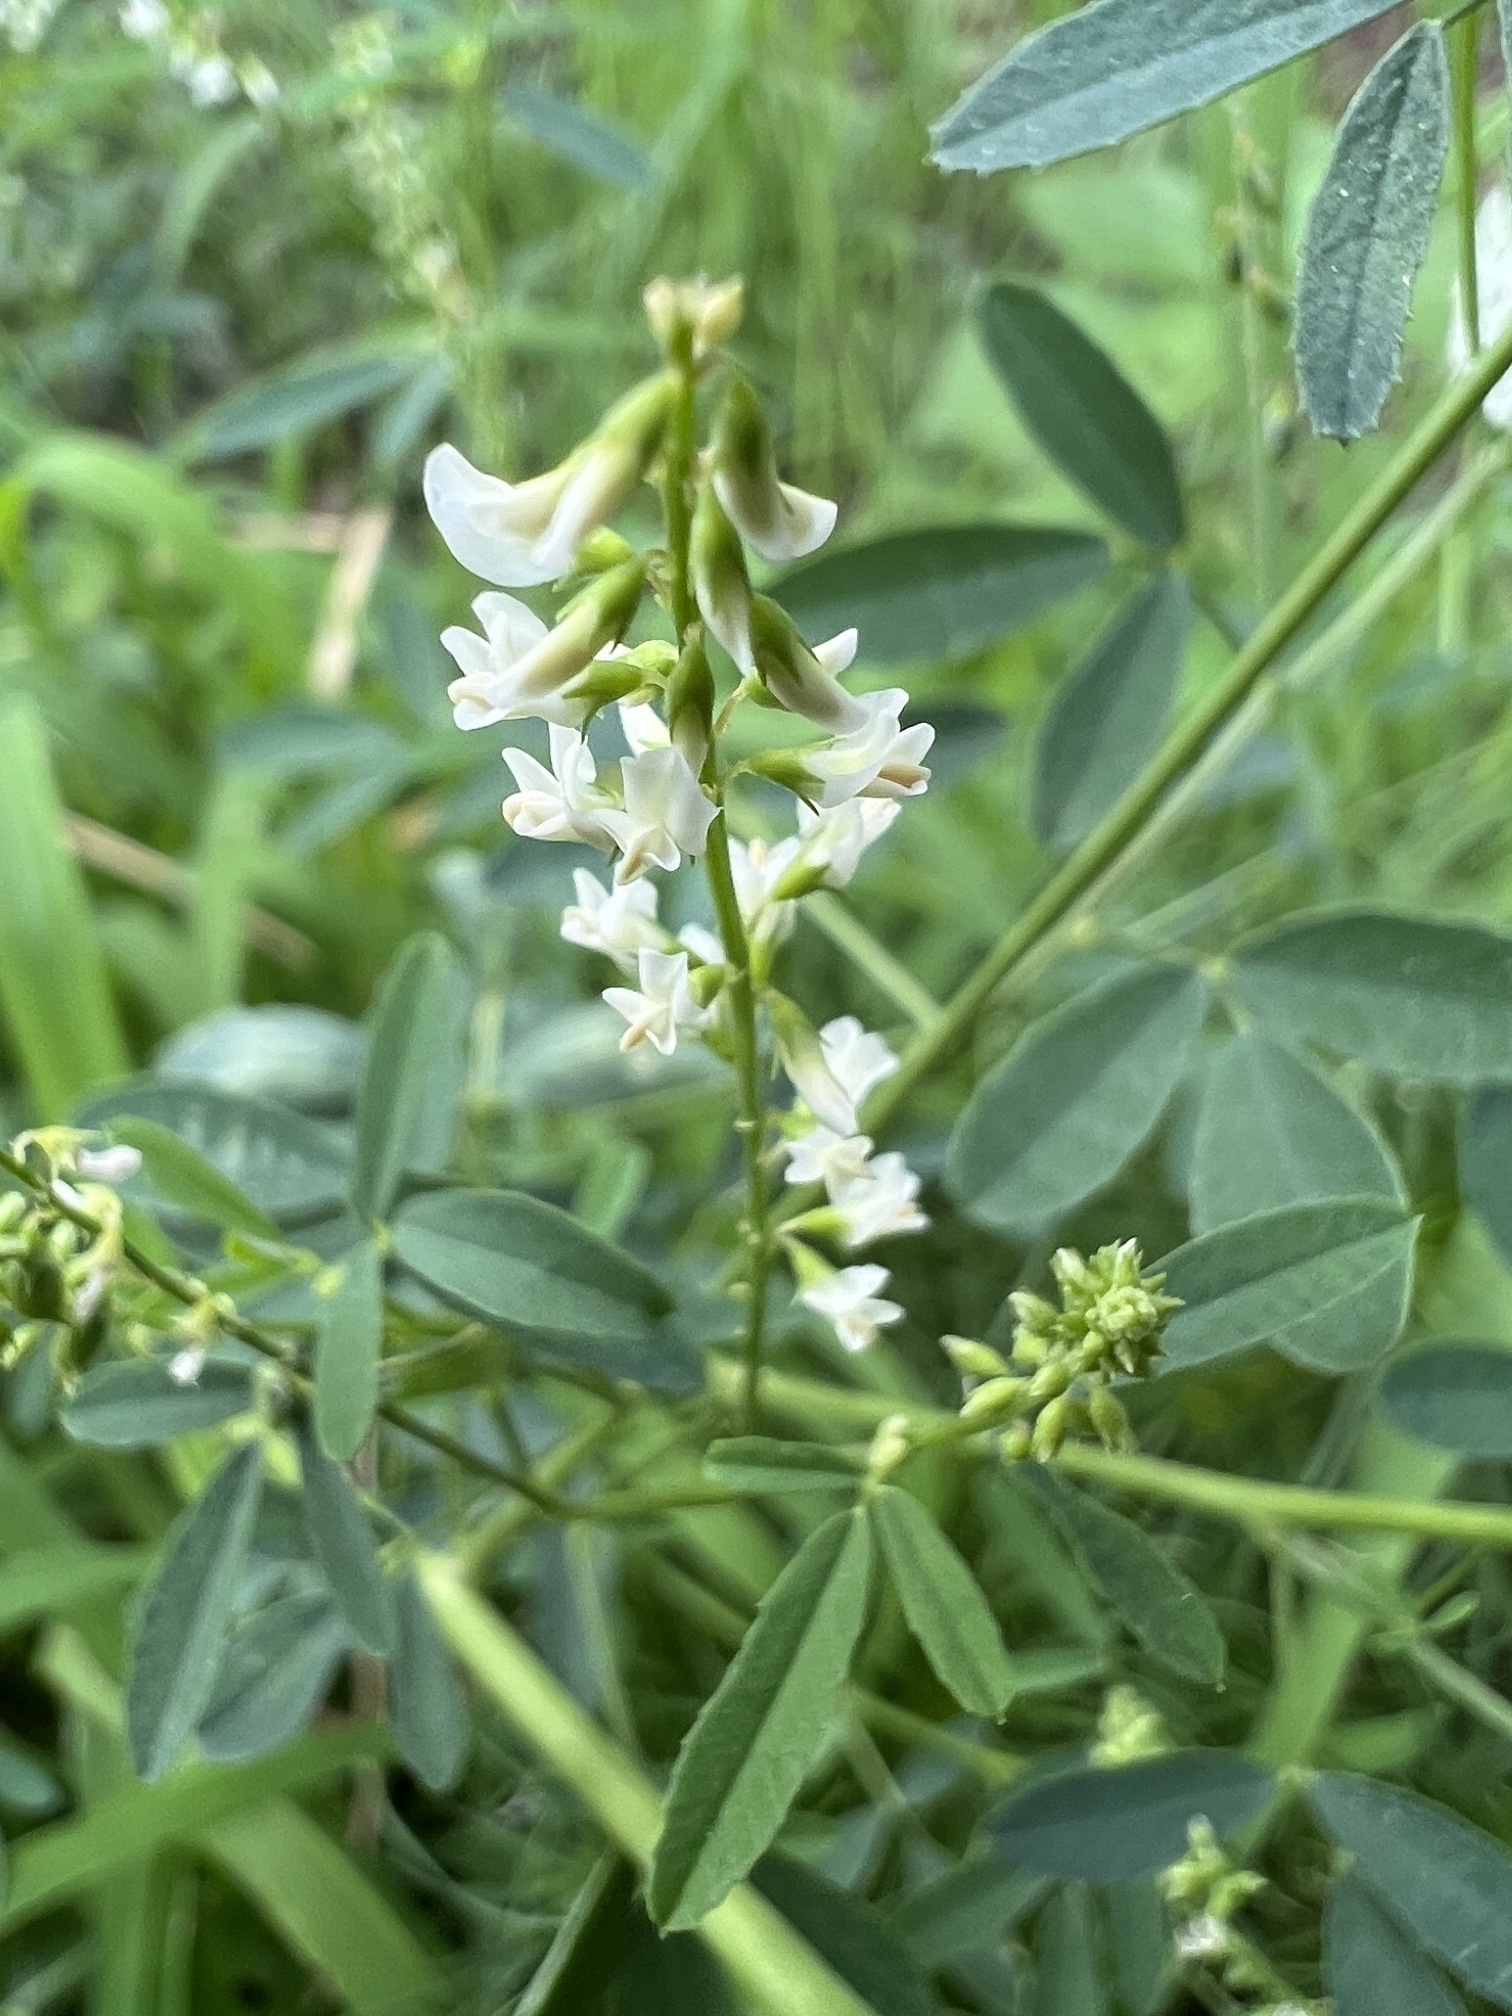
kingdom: Plantae
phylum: Tracheophyta
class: Magnoliopsida
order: Fabales
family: Fabaceae
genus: Melilotus
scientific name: Melilotus albus
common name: White melilot
